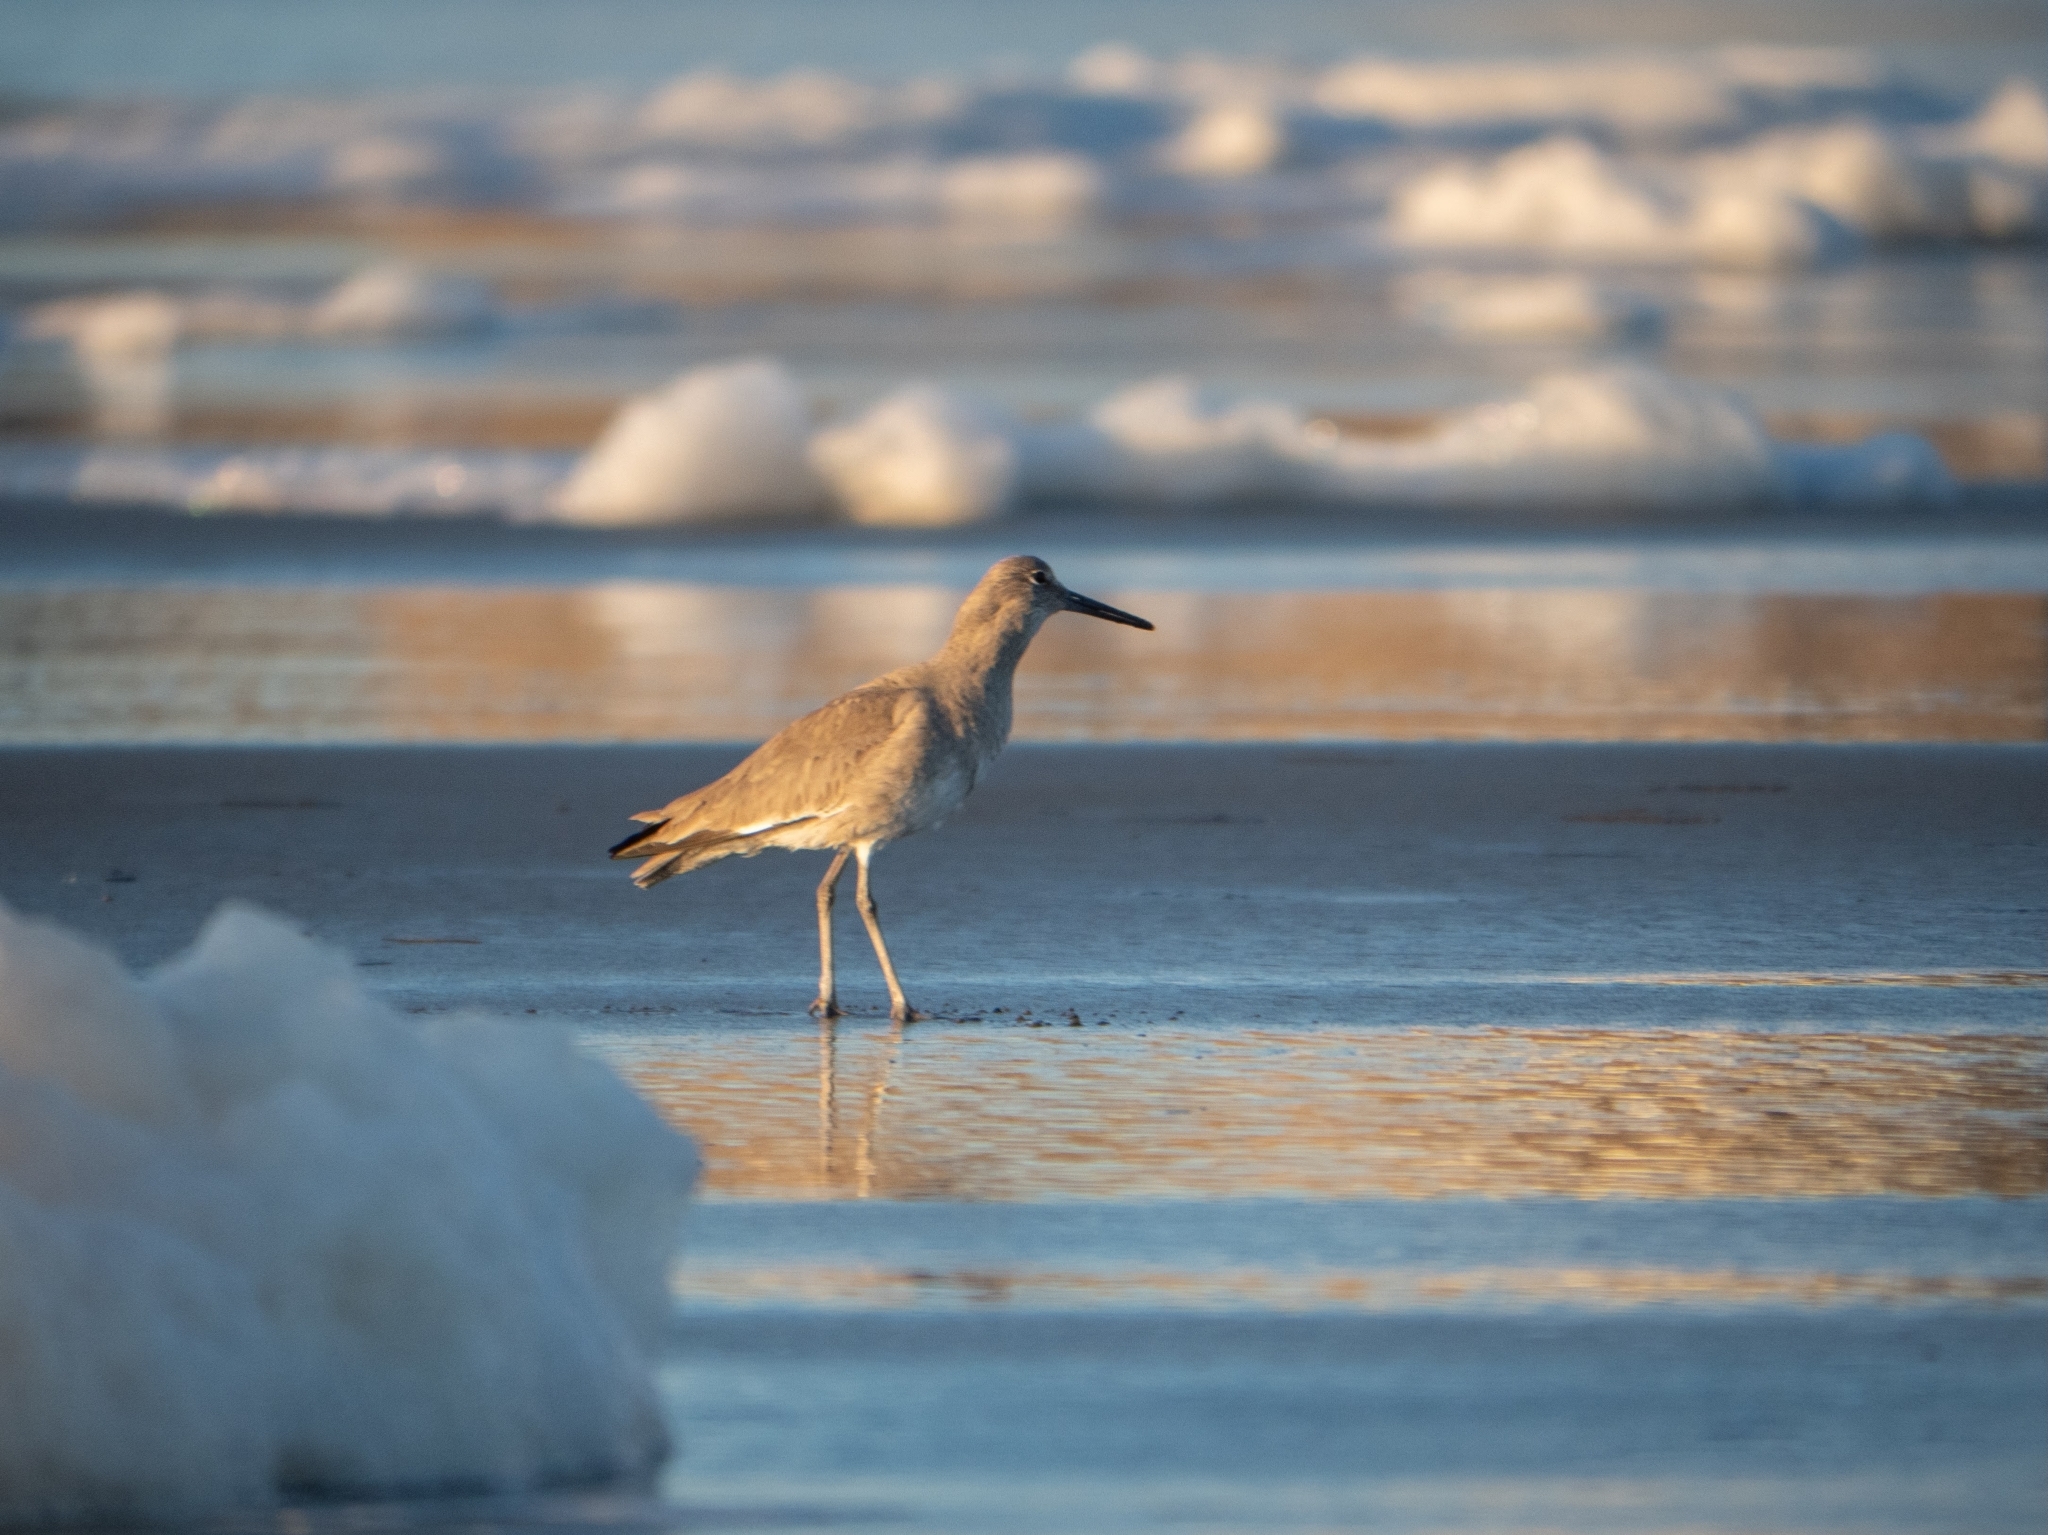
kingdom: Animalia
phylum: Chordata
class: Aves
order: Charadriiformes
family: Scolopacidae
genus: Tringa
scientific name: Tringa semipalmata
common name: Willet
